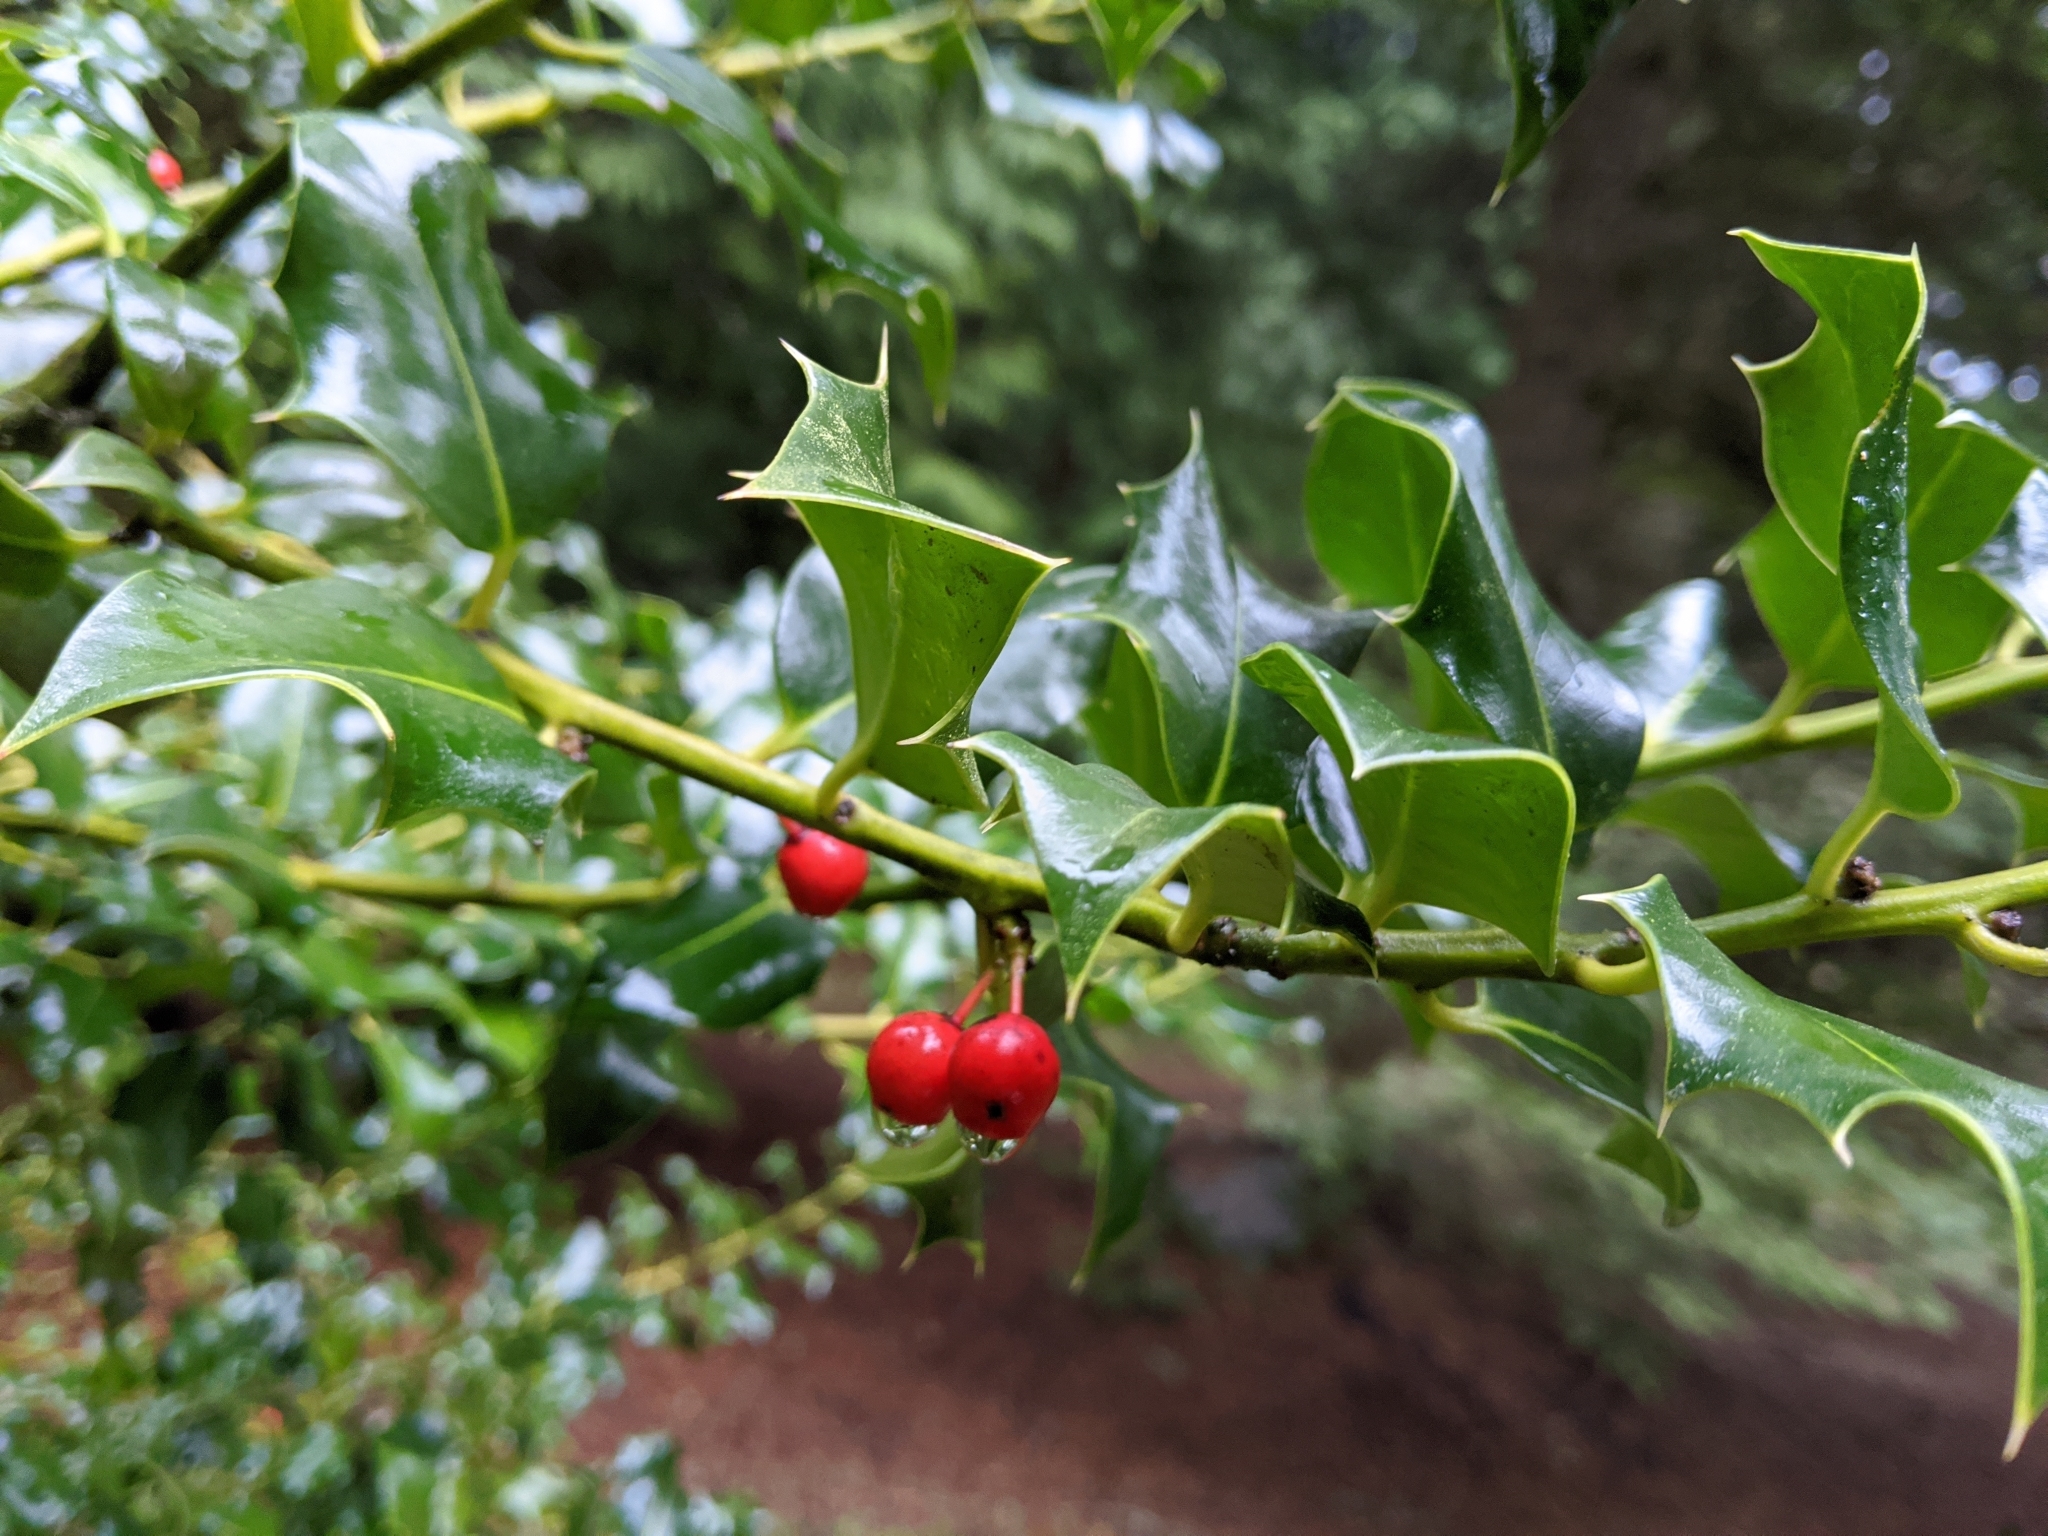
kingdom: Plantae
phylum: Tracheophyta
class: Magnoliopsida
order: Aquifoliales
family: Aquifoliaceae
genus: Ilex
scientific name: Ilex aquifolium
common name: English holly
